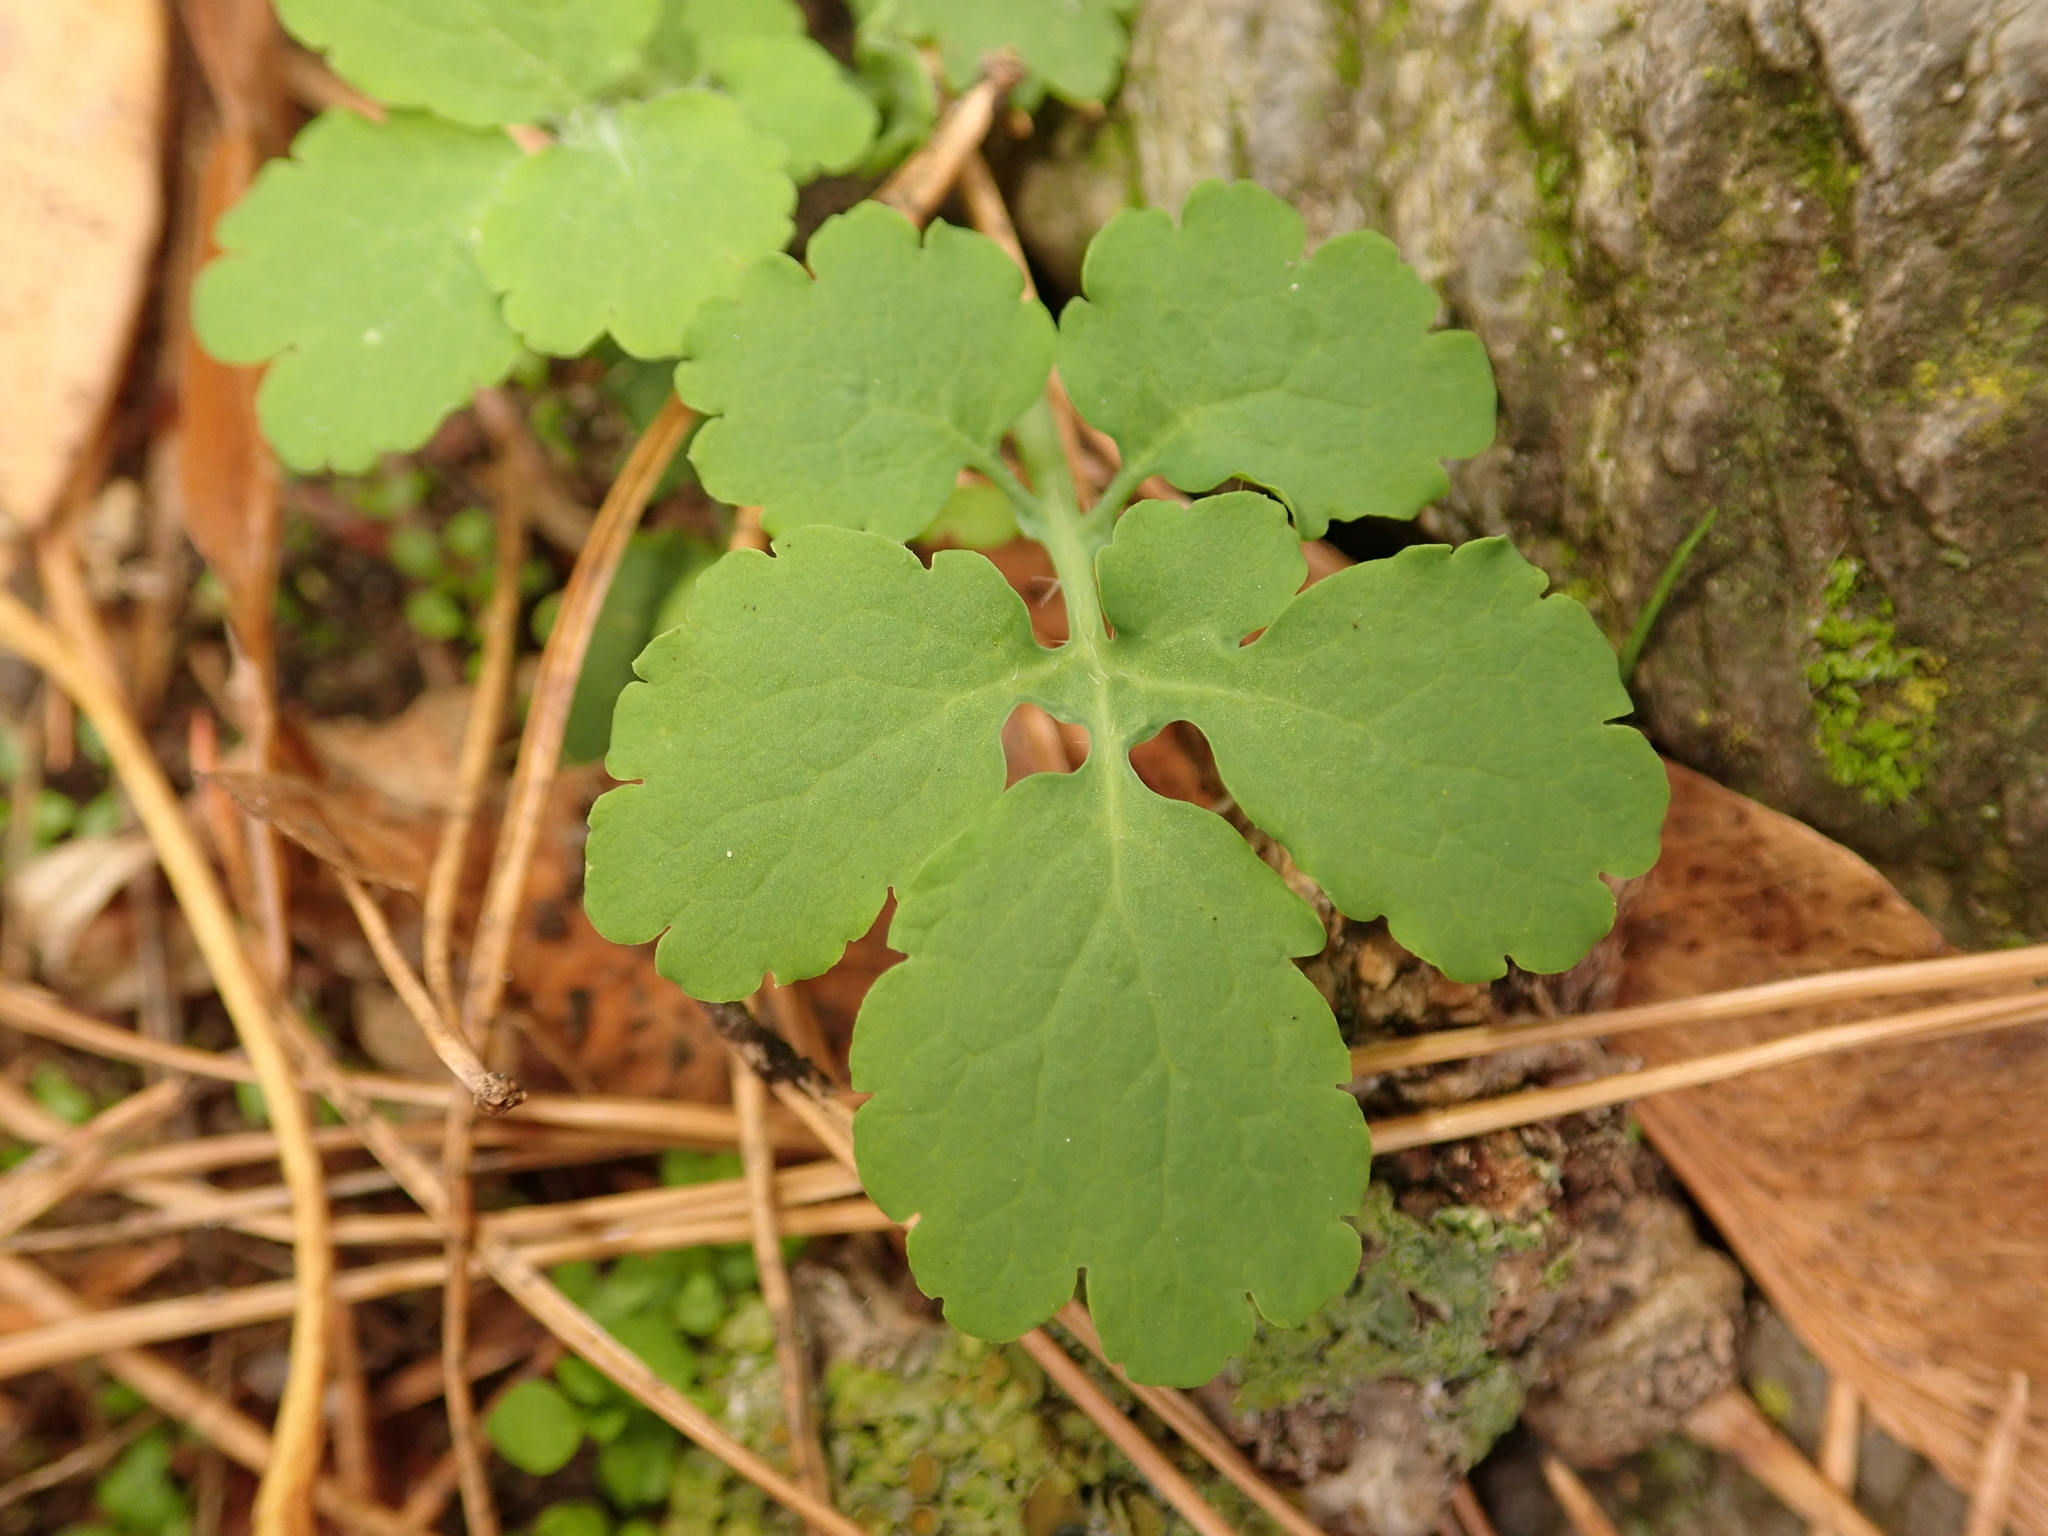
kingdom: Plantae
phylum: Tracheophyta
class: Magnoliopsida
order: Ranunculales
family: Papaveraceae
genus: Chelidonium
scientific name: Chelidonium majus
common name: Greater celandine
